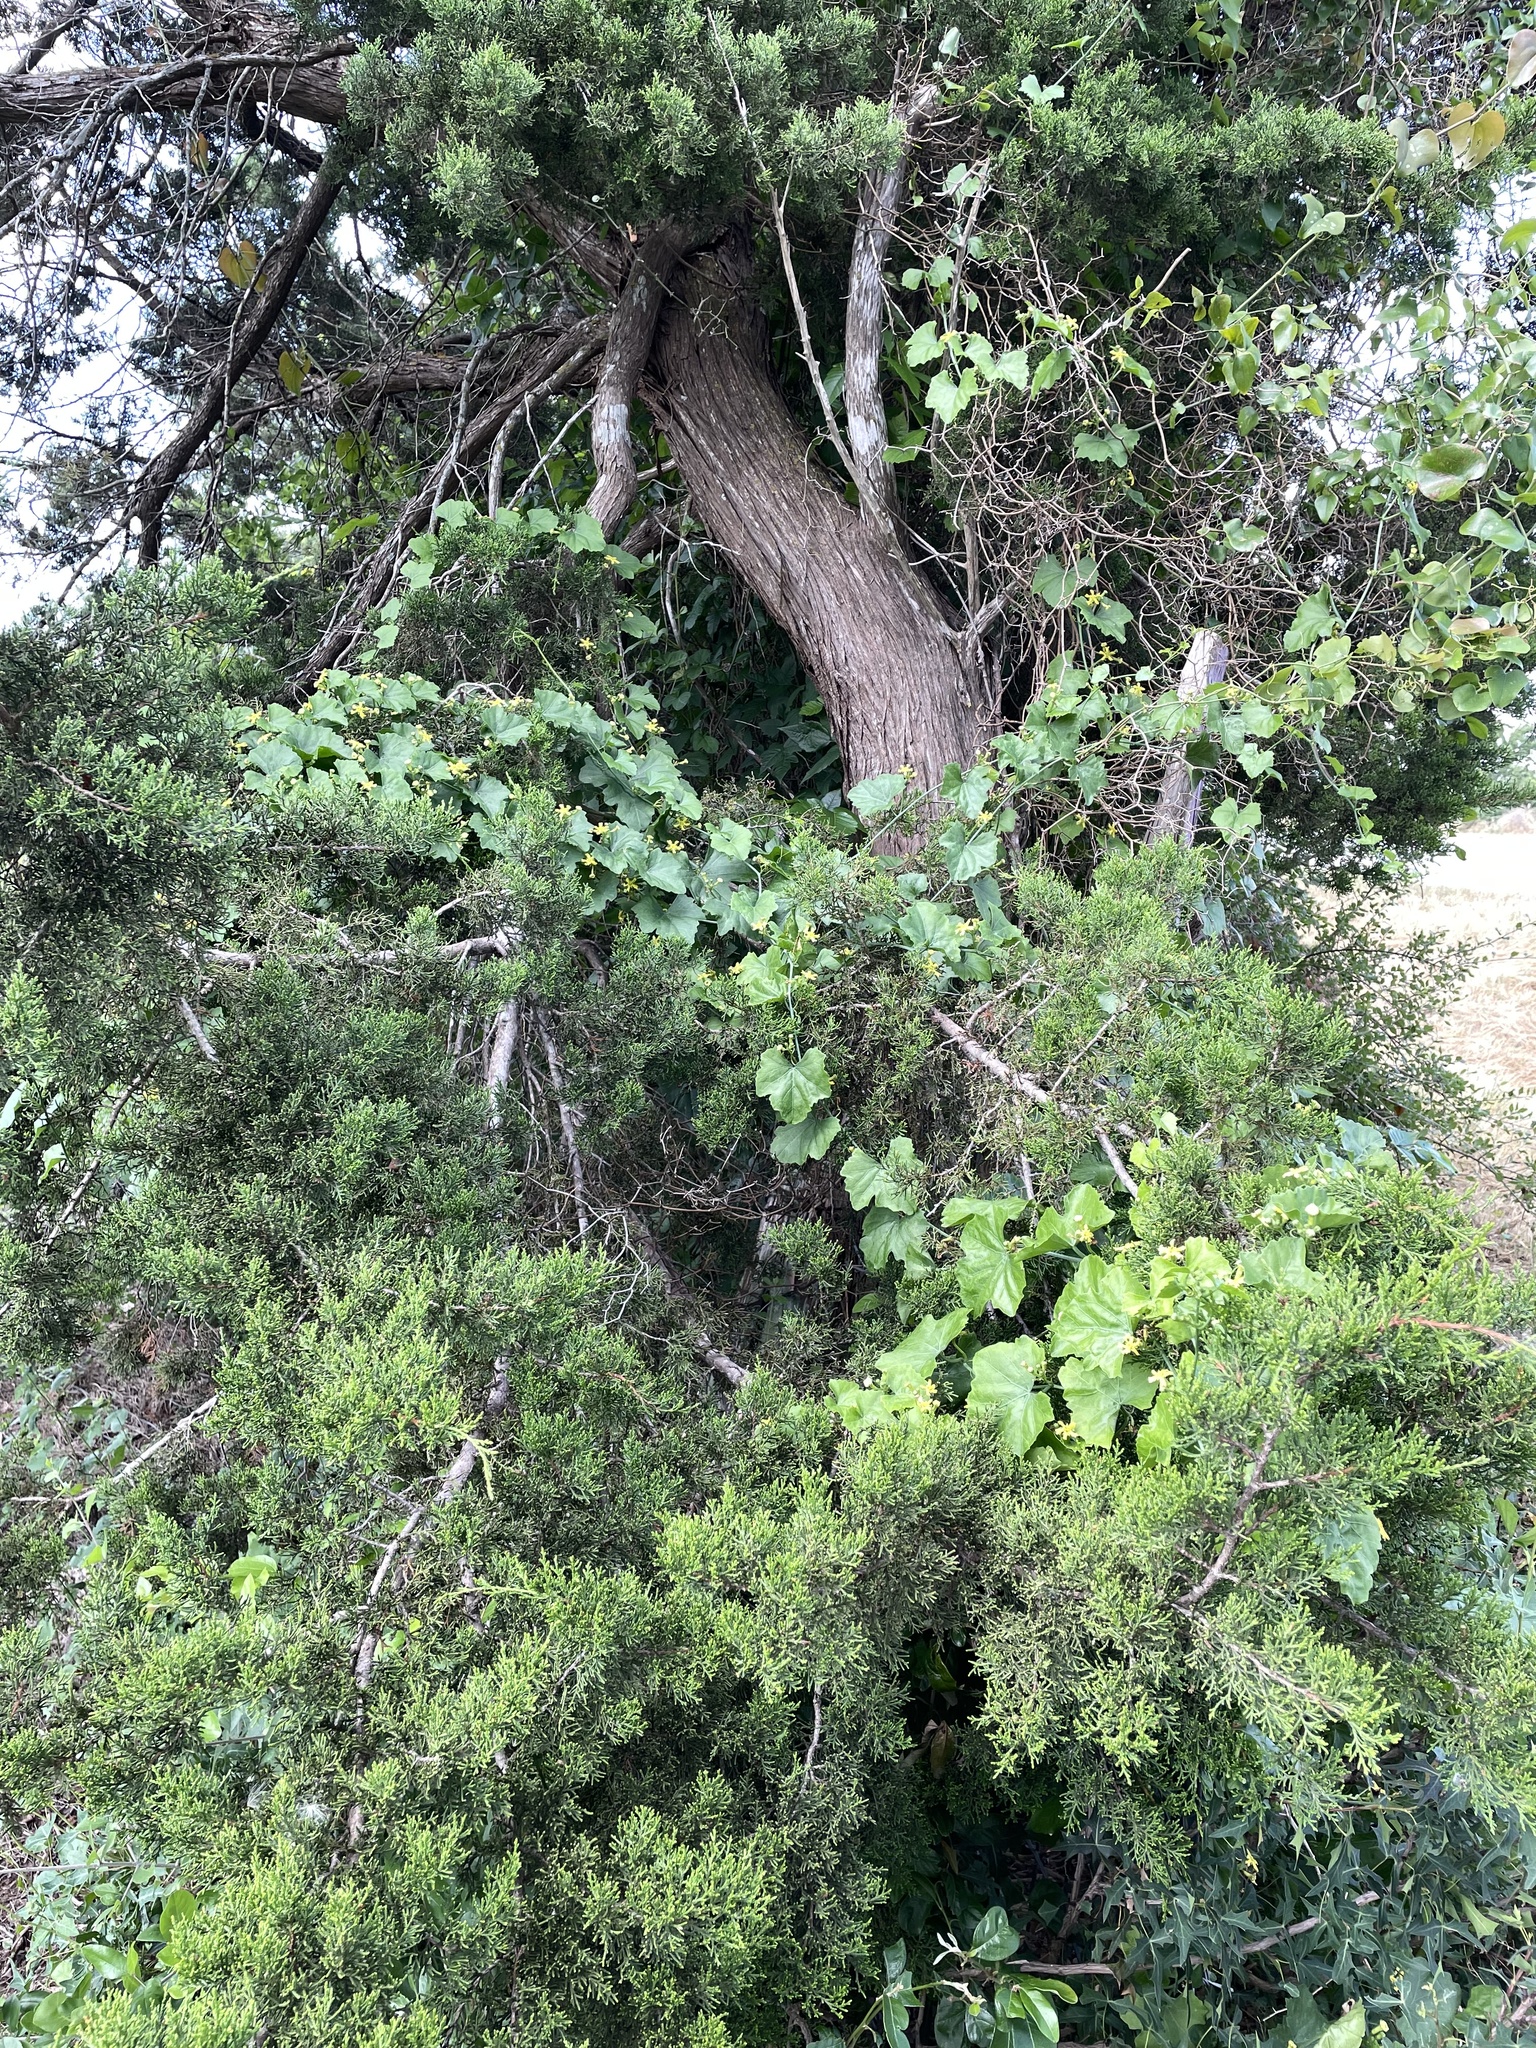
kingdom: Plantae
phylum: Tracheophyta
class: Magnoliopsida
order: Cucurbitales
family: Cucurbitaceae
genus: Ibervillea
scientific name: Ibervillea lindheimeri
